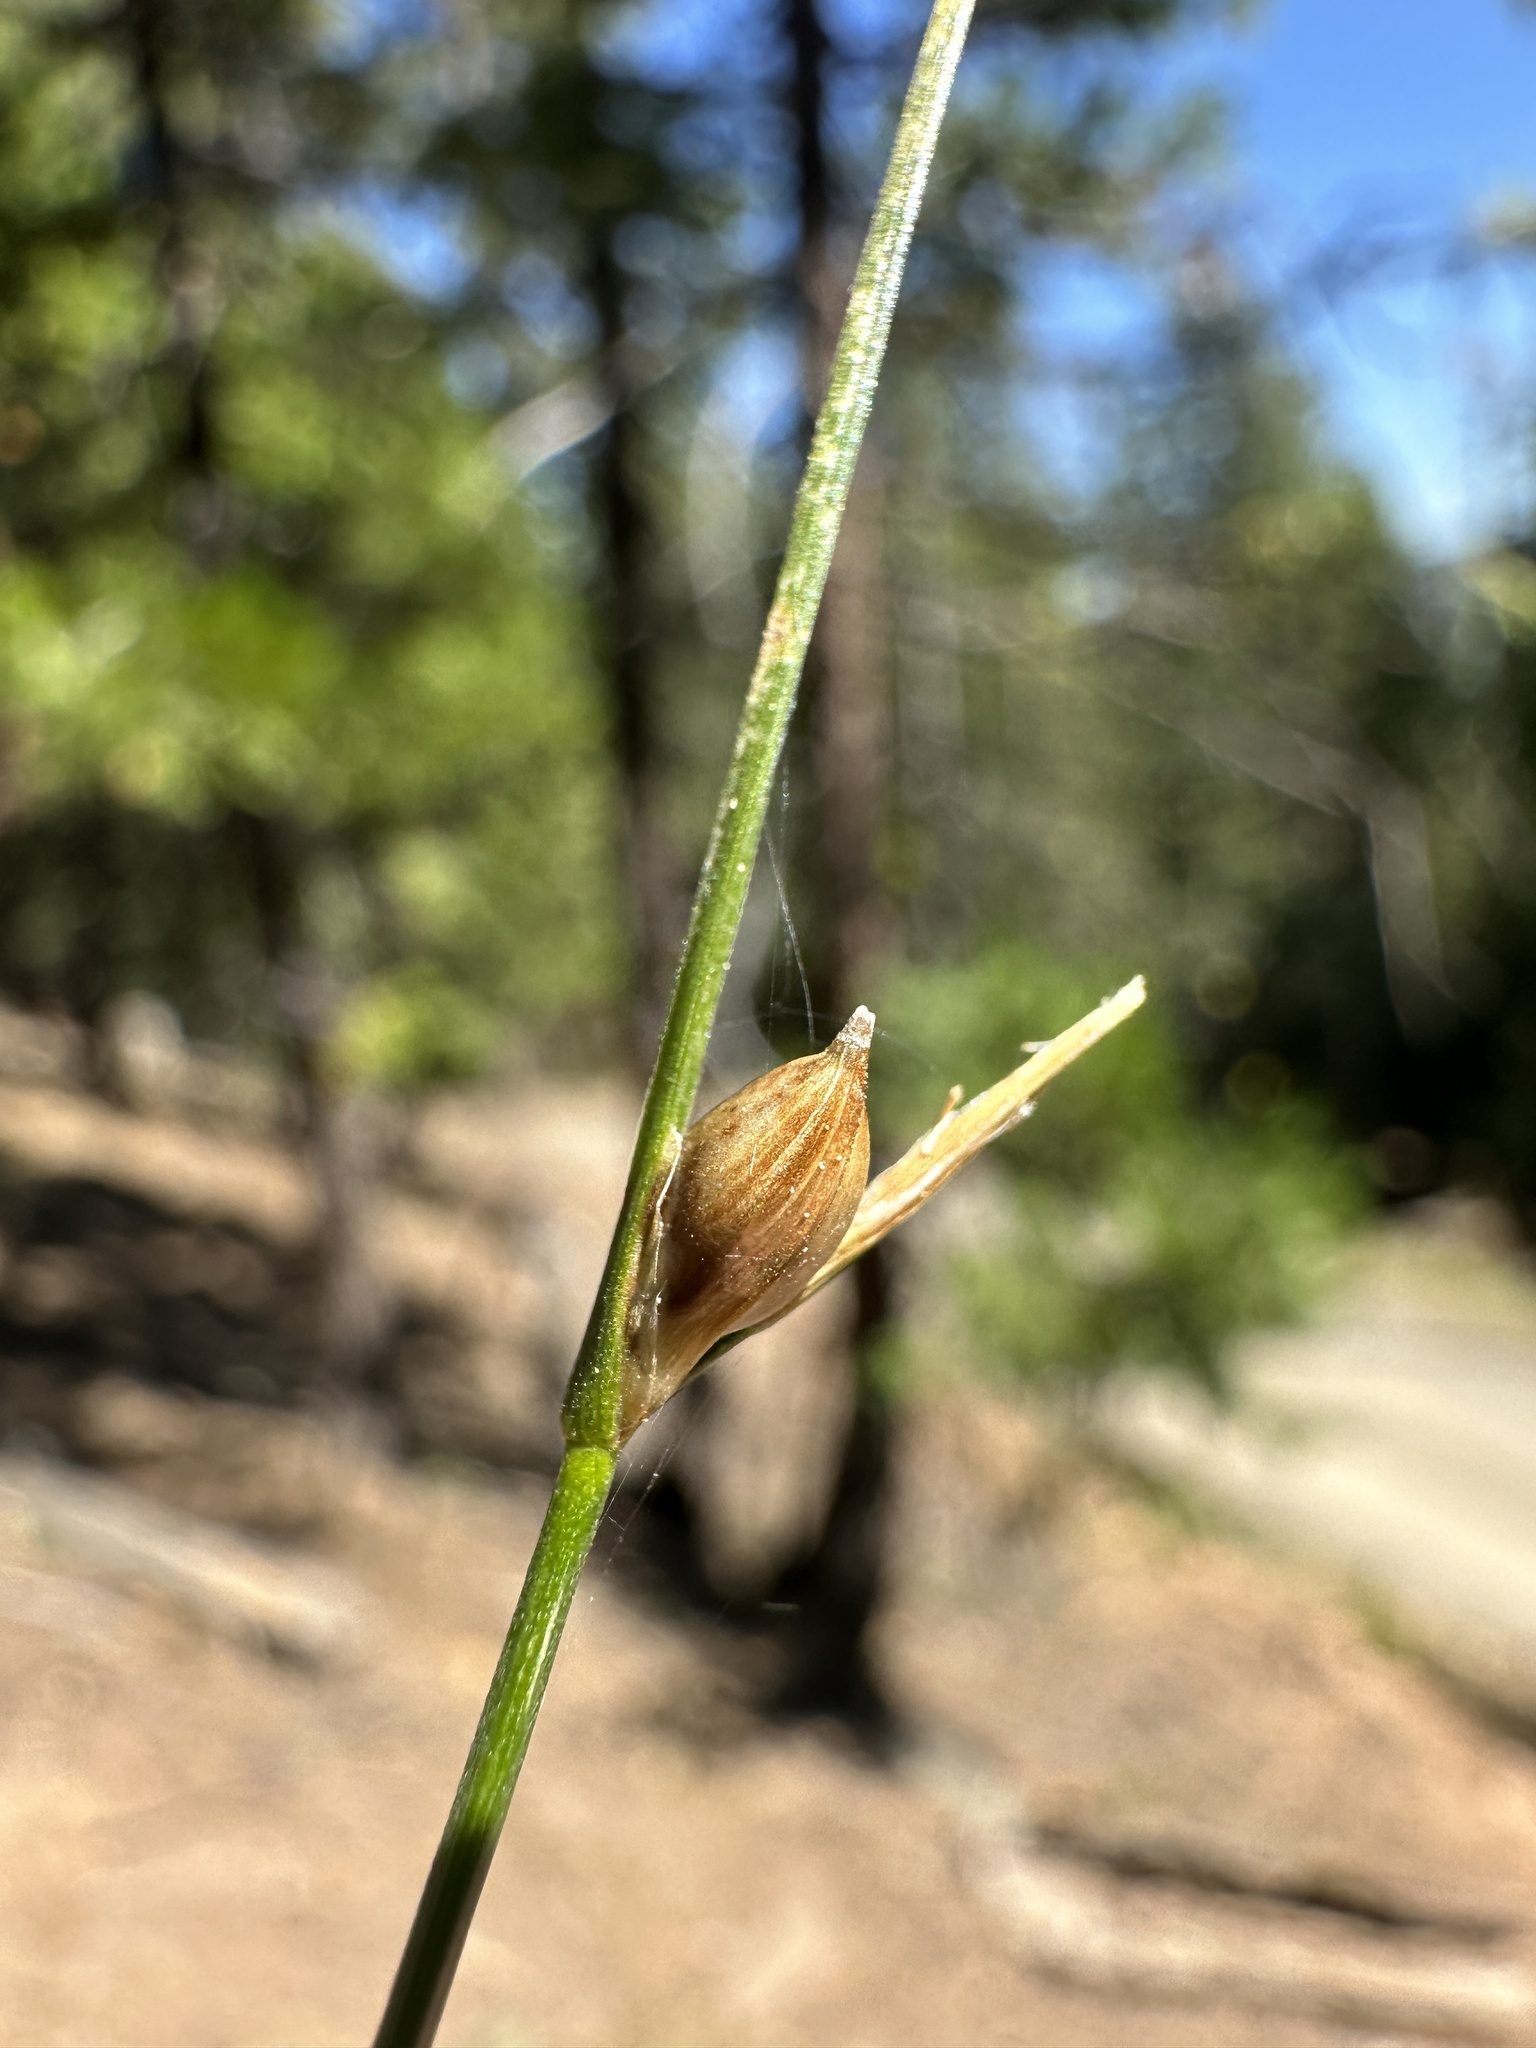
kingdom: Plantae
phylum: Tracheophyta
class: Liliopsida
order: Poales
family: Cyperaceae
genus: Carex
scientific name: Carex multicaulis
